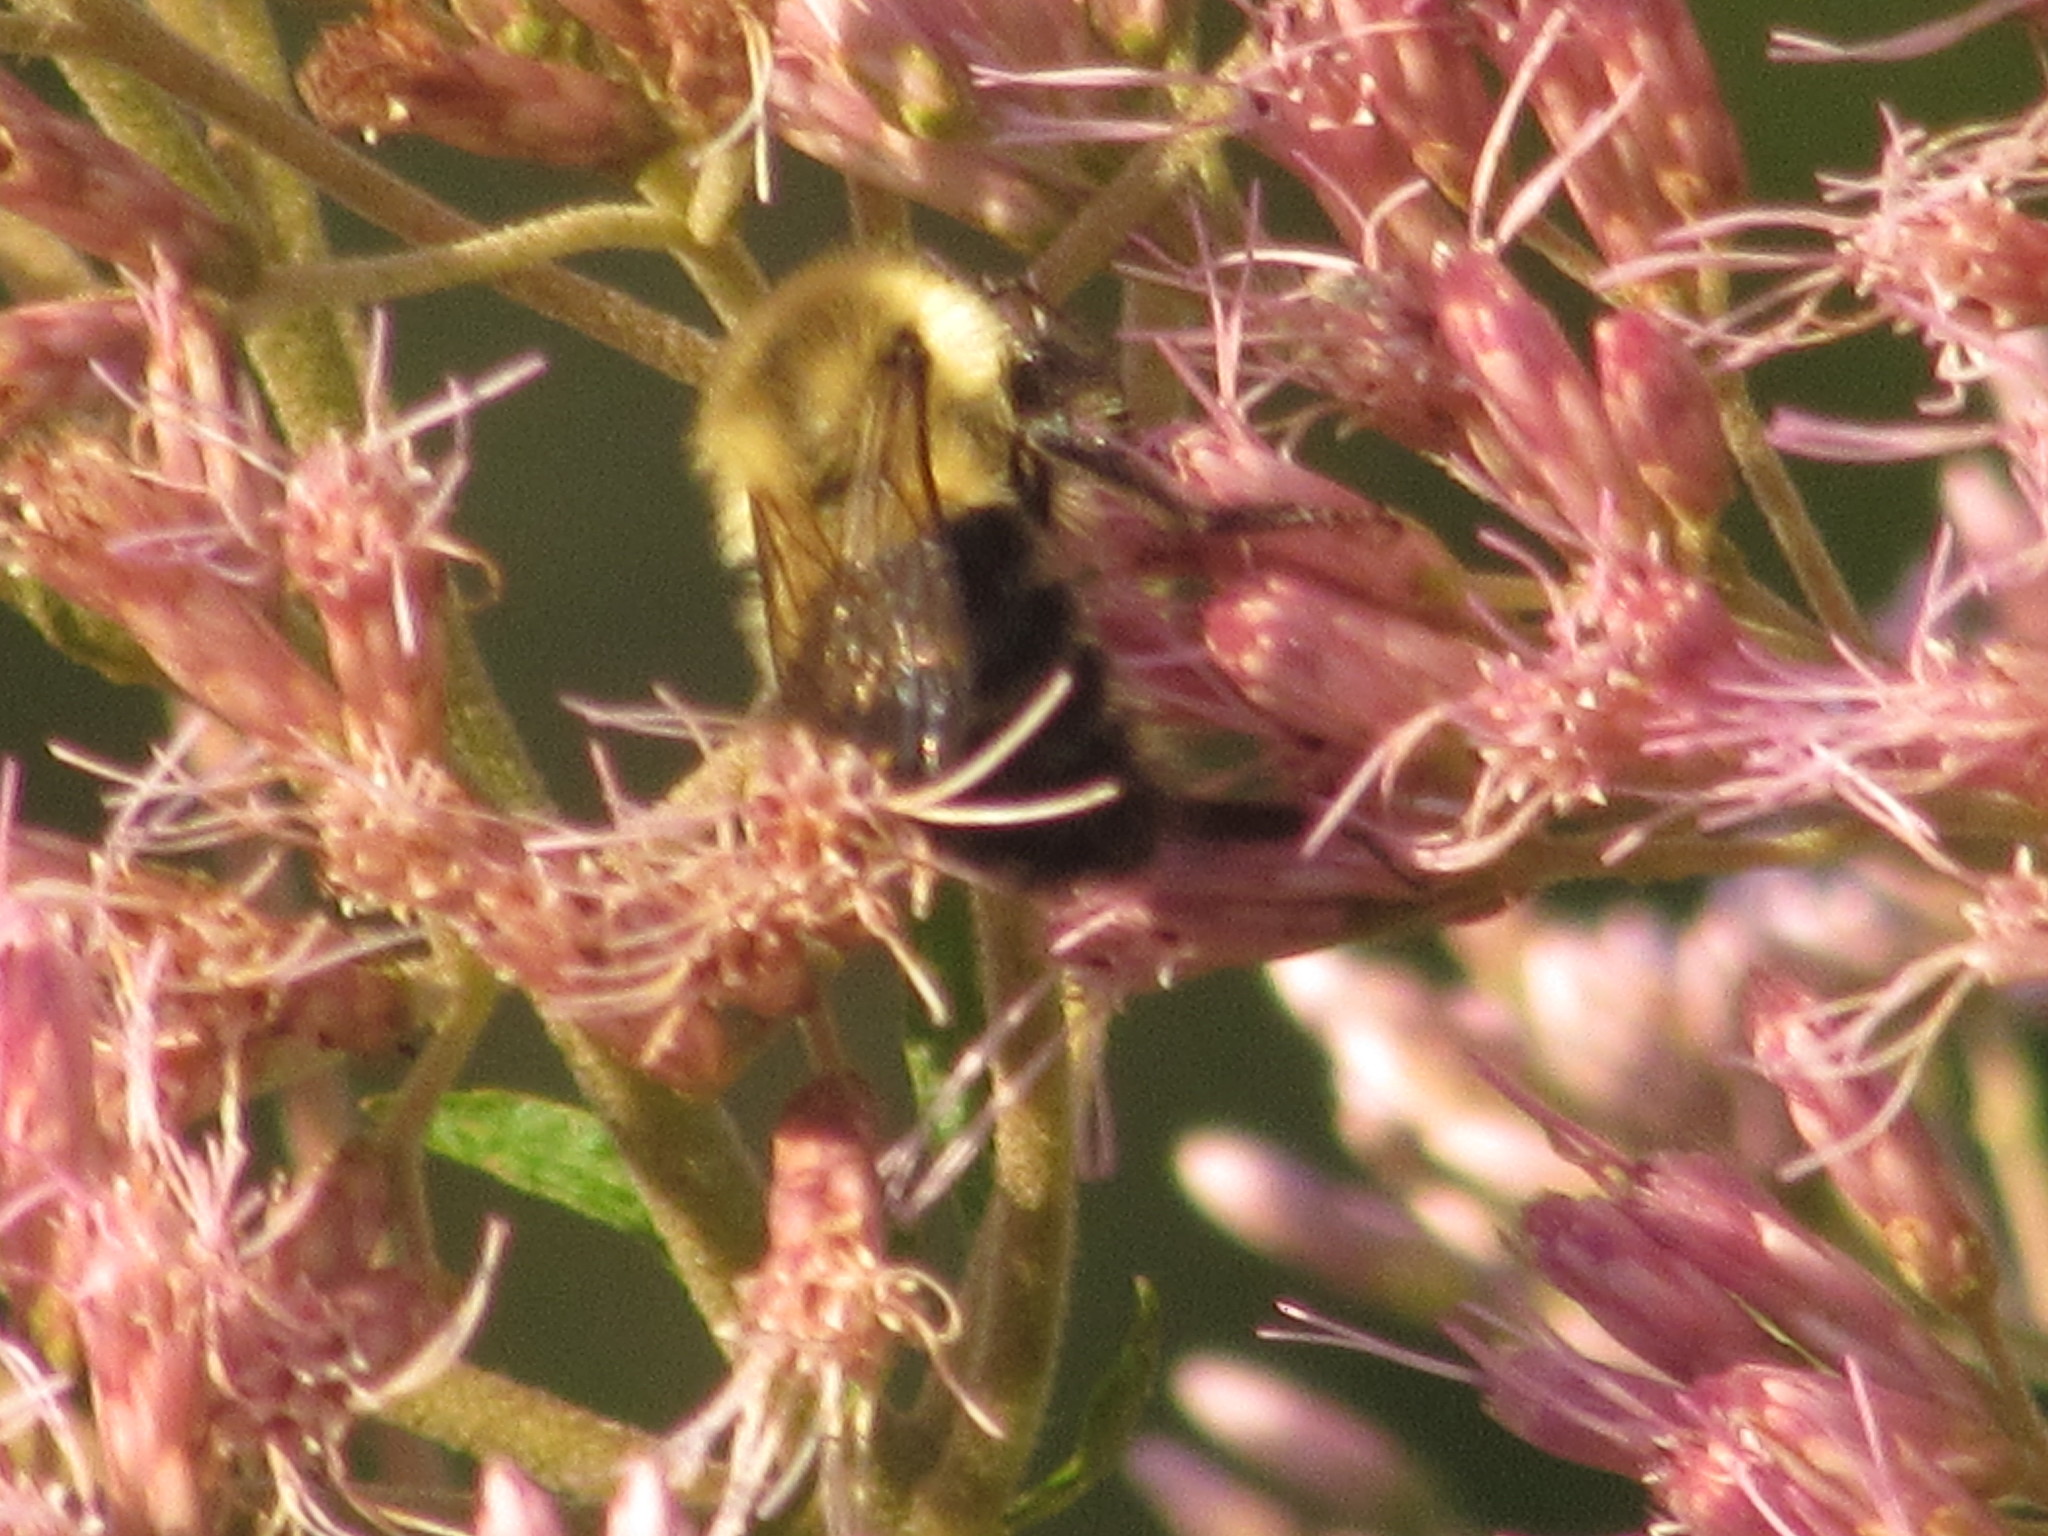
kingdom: Animalia
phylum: Arthropoda
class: Insecta
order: Hymenoptera
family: Apidae
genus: Bombus
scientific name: Bombus impatiens
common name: Common eastern bumble bee
